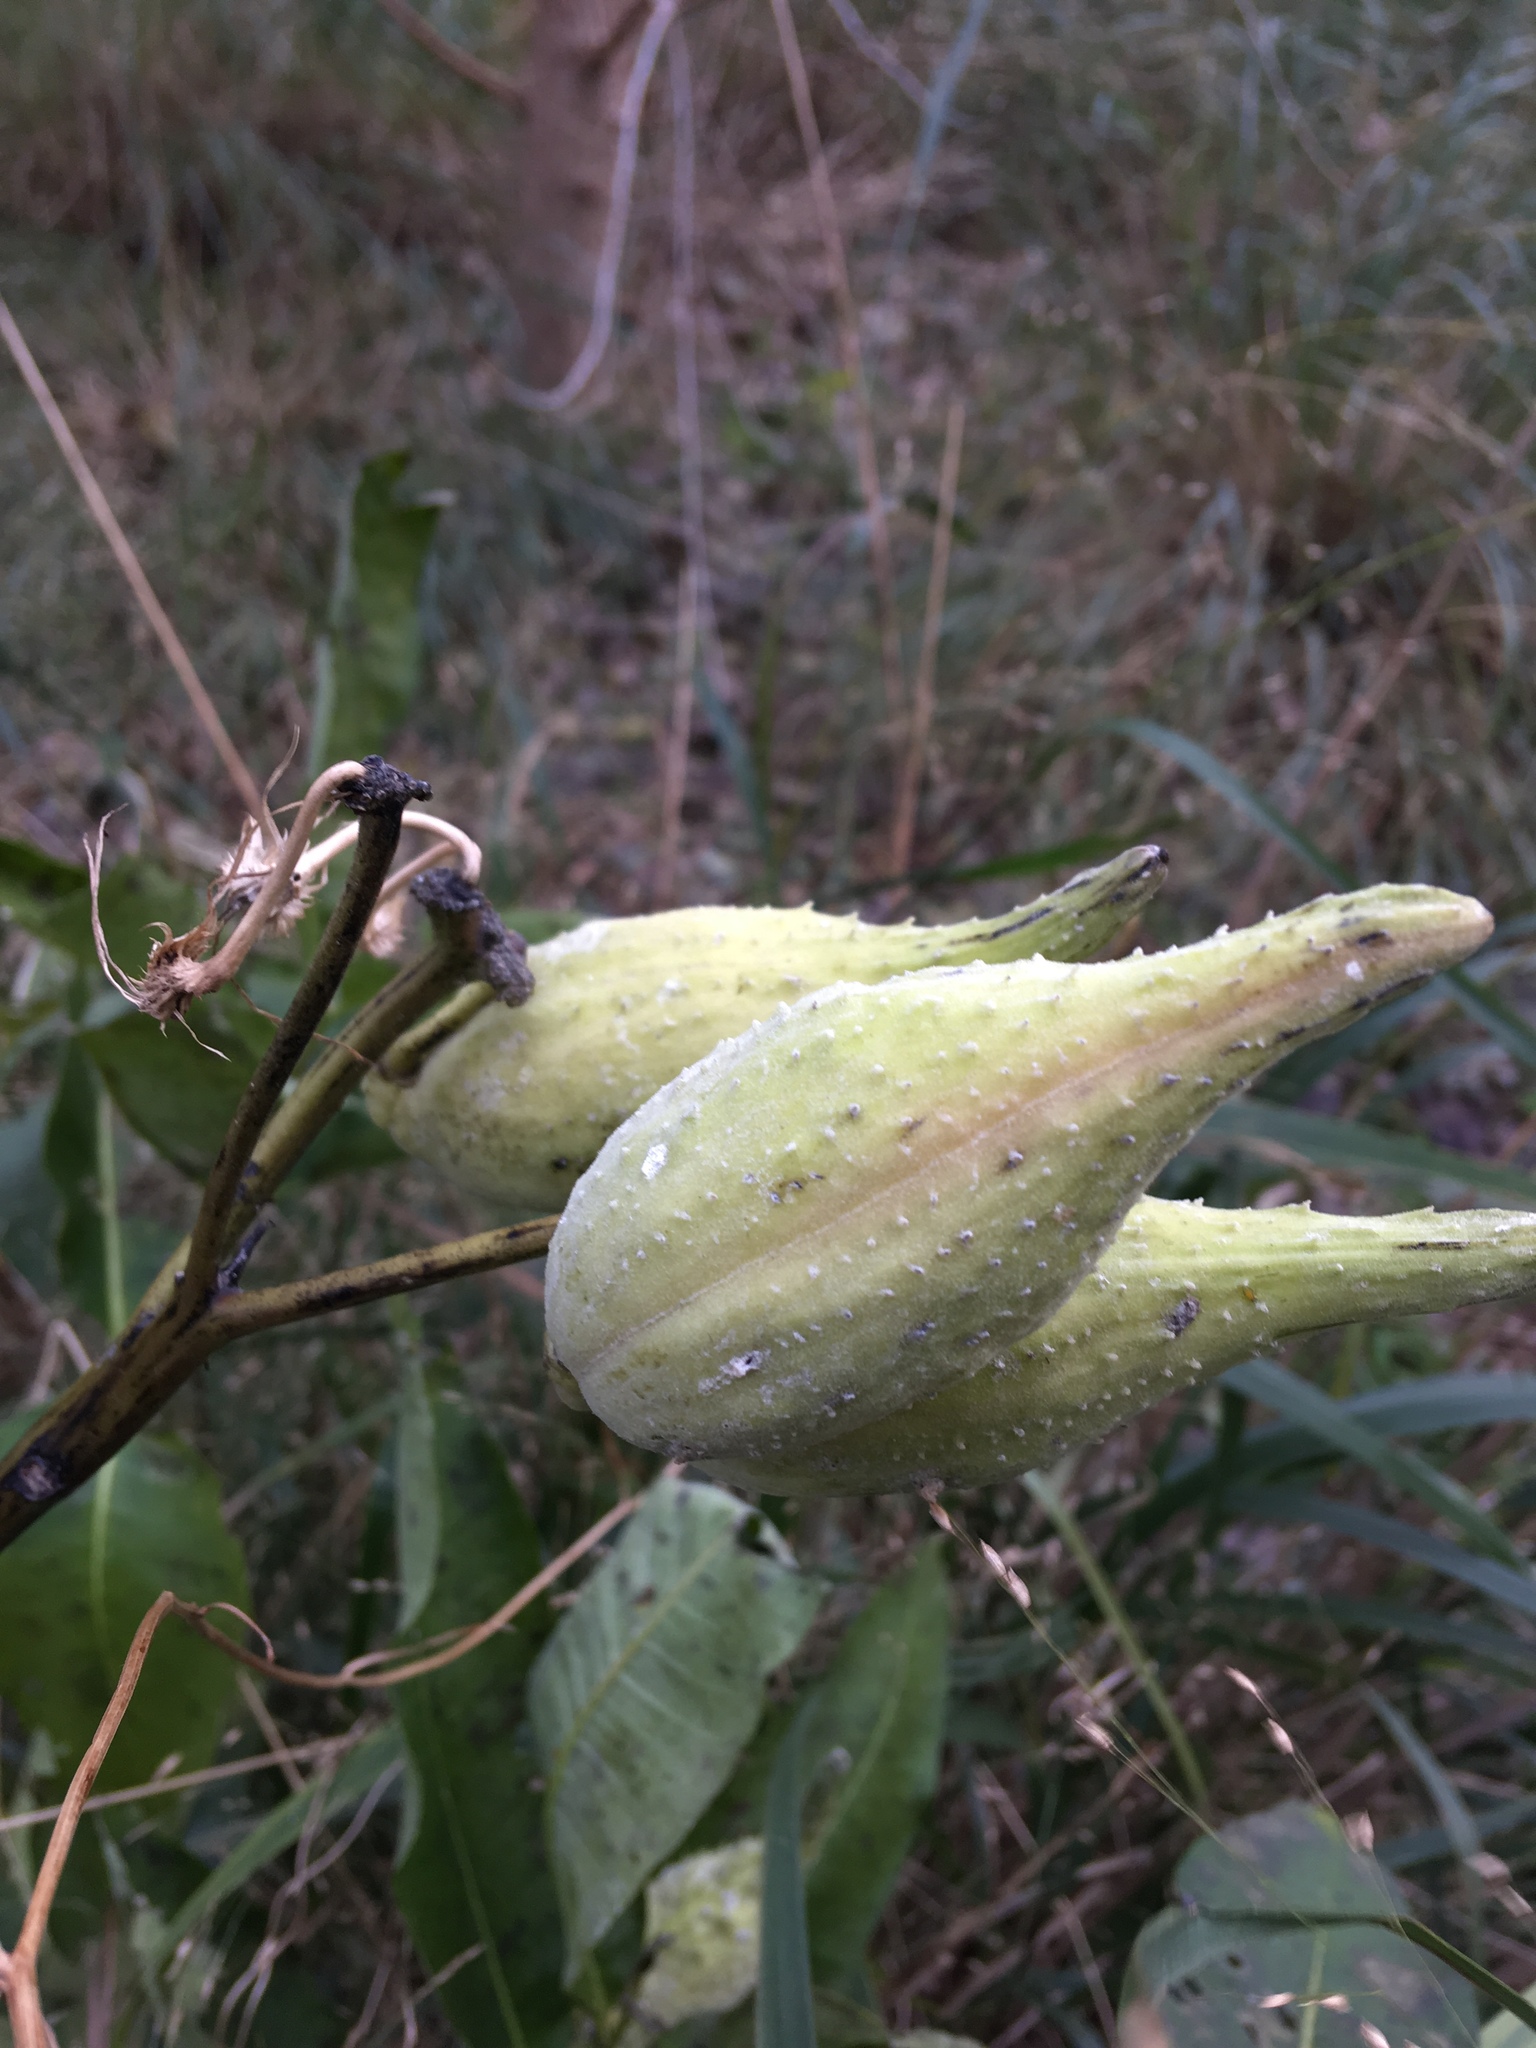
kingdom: Plantae
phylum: Tracheophyta
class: Magnoliopsida
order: Gentianales
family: Apocynaceae
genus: Asclepias
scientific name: Asclepias syriaca
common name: Common milkweed
